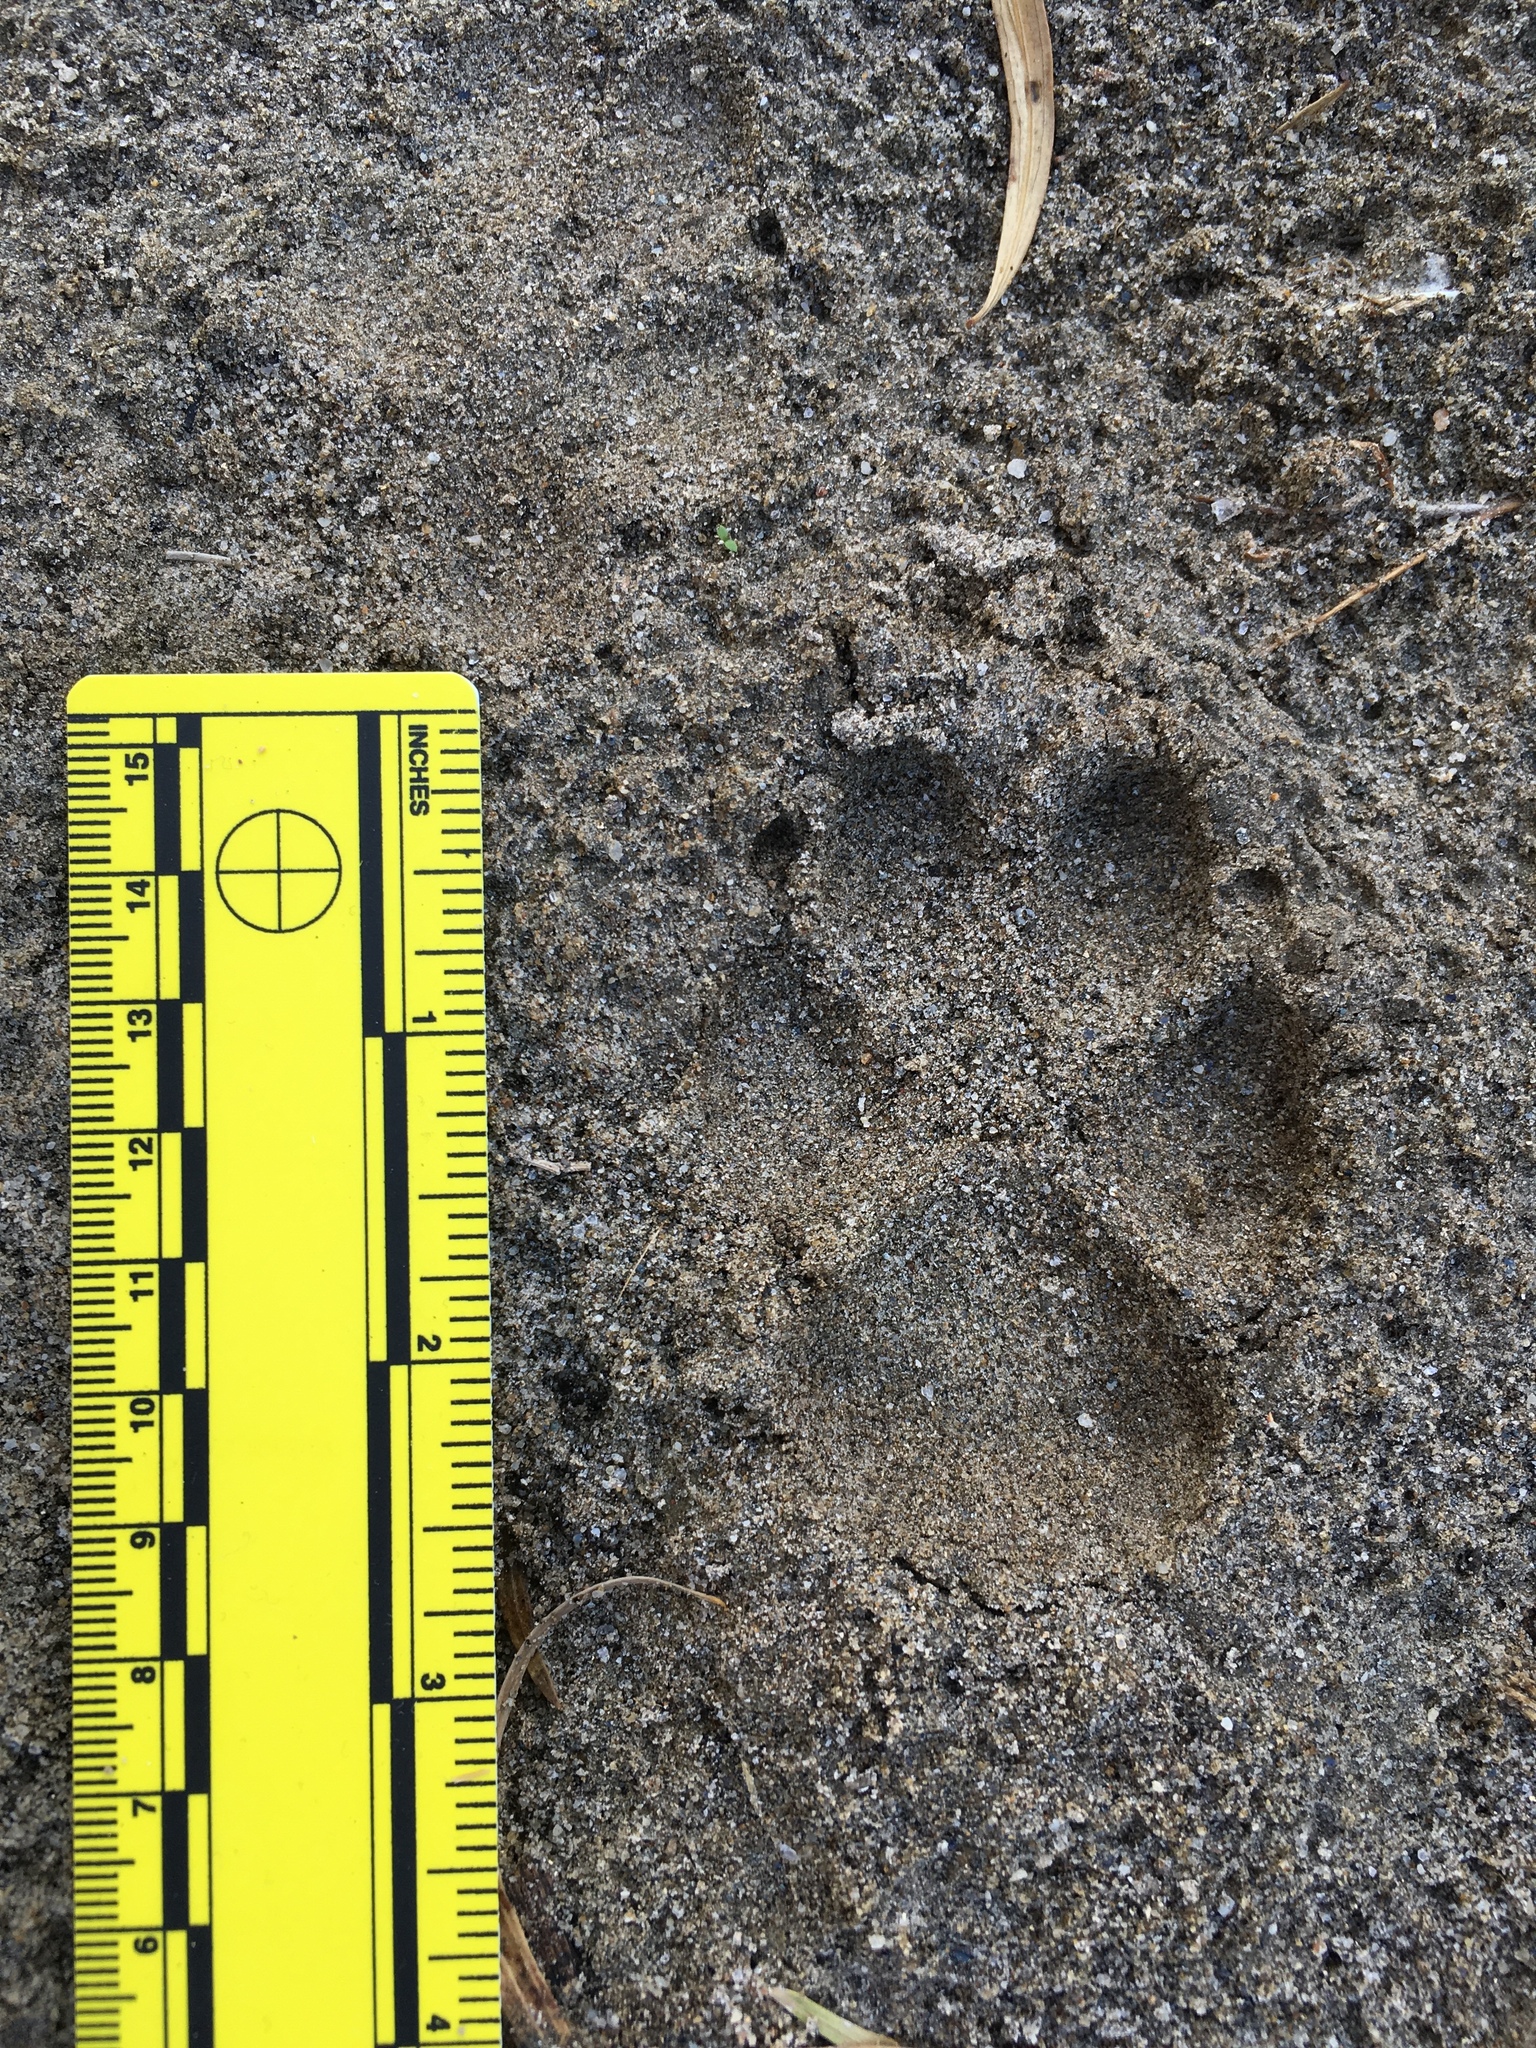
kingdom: Animalia
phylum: Chordata
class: Mammalia
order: Carnivora
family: Canidae
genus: Canis
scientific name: Canis latrans
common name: Coyote
